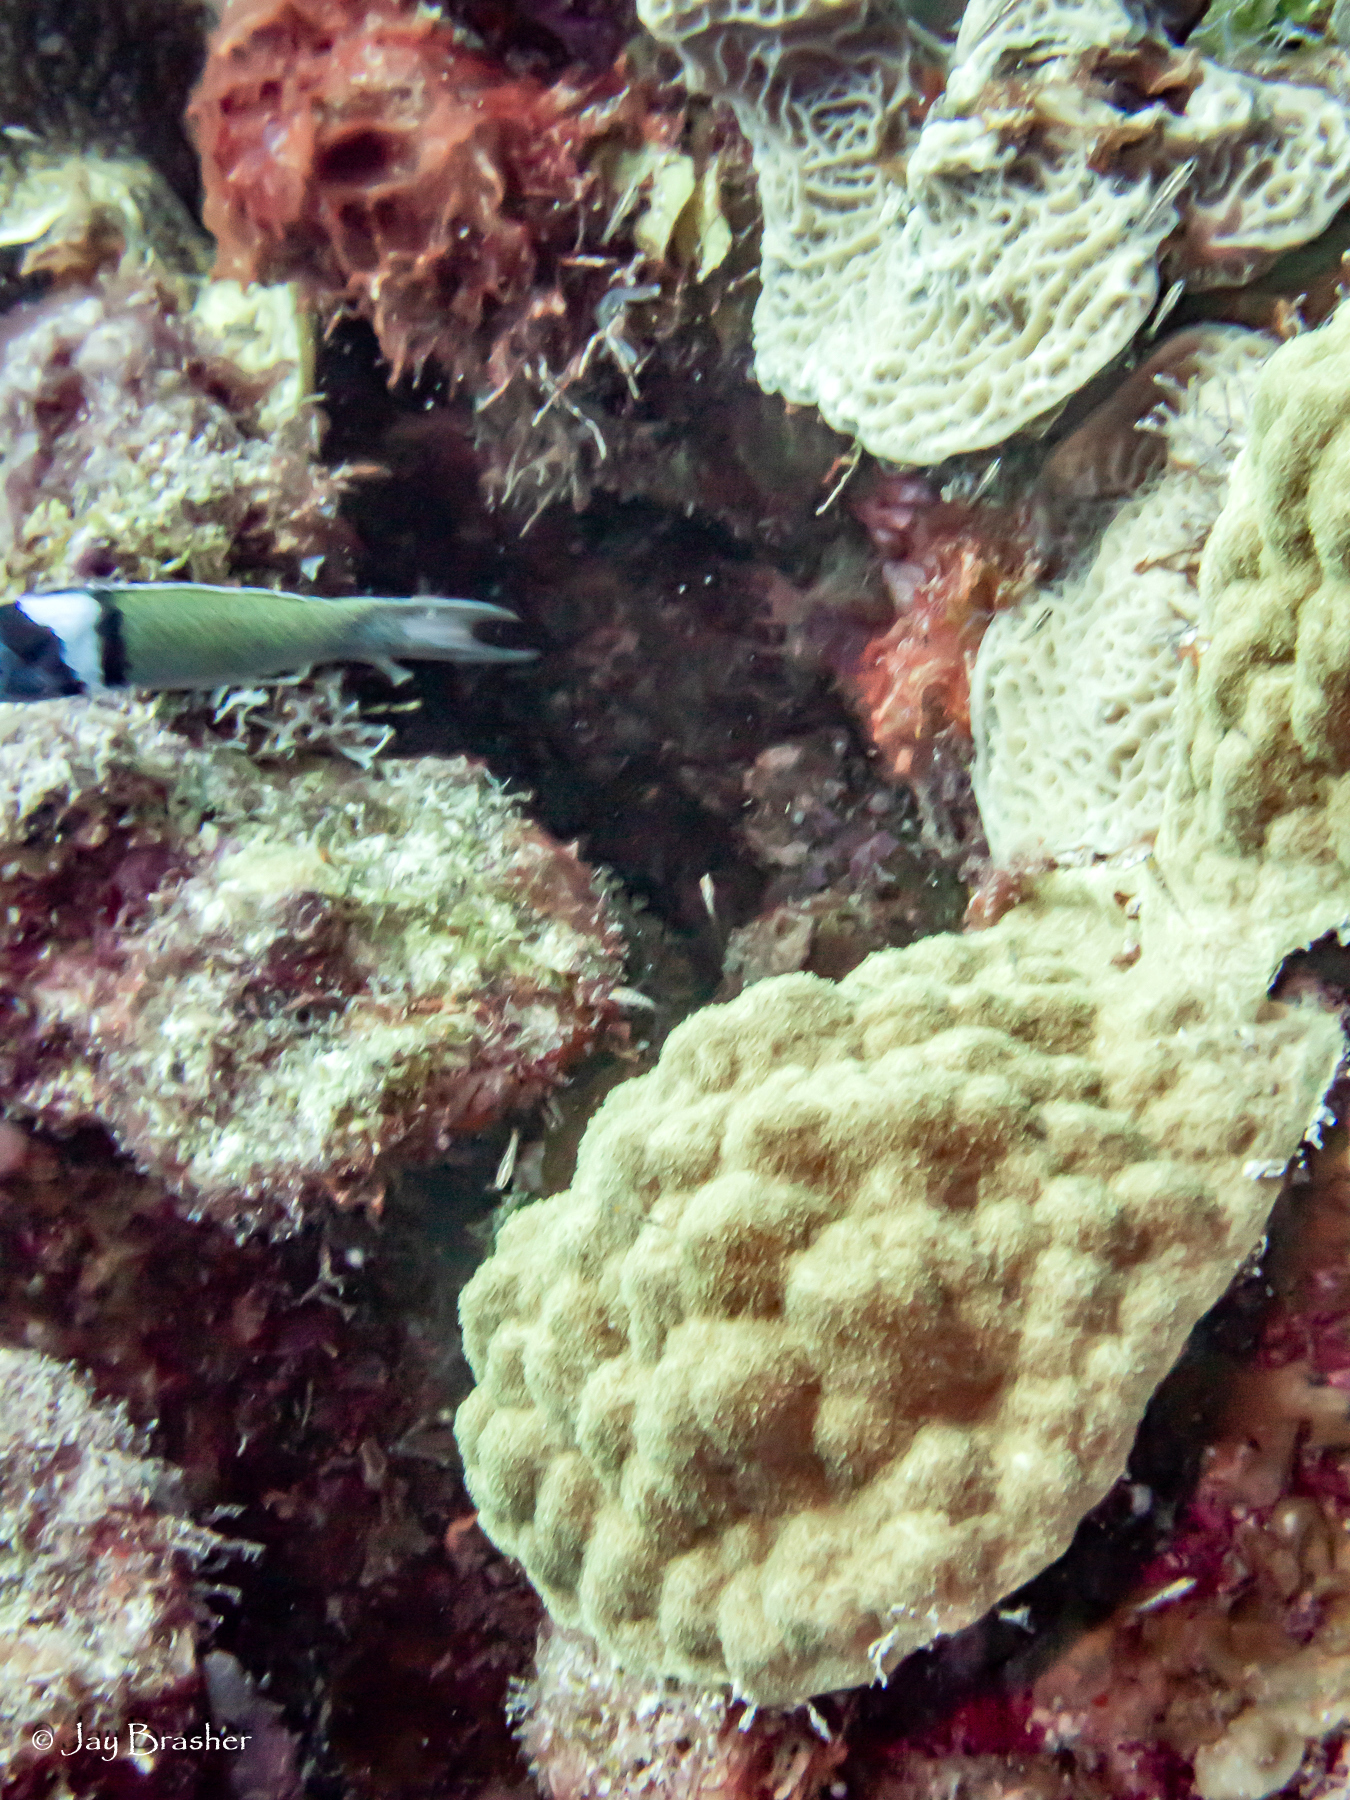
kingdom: Animalia
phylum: Cnidaria
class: Anthozoa
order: Scleractinia
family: Poritidae
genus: Porites
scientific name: Porites astreoides
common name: Mustard hill coral
